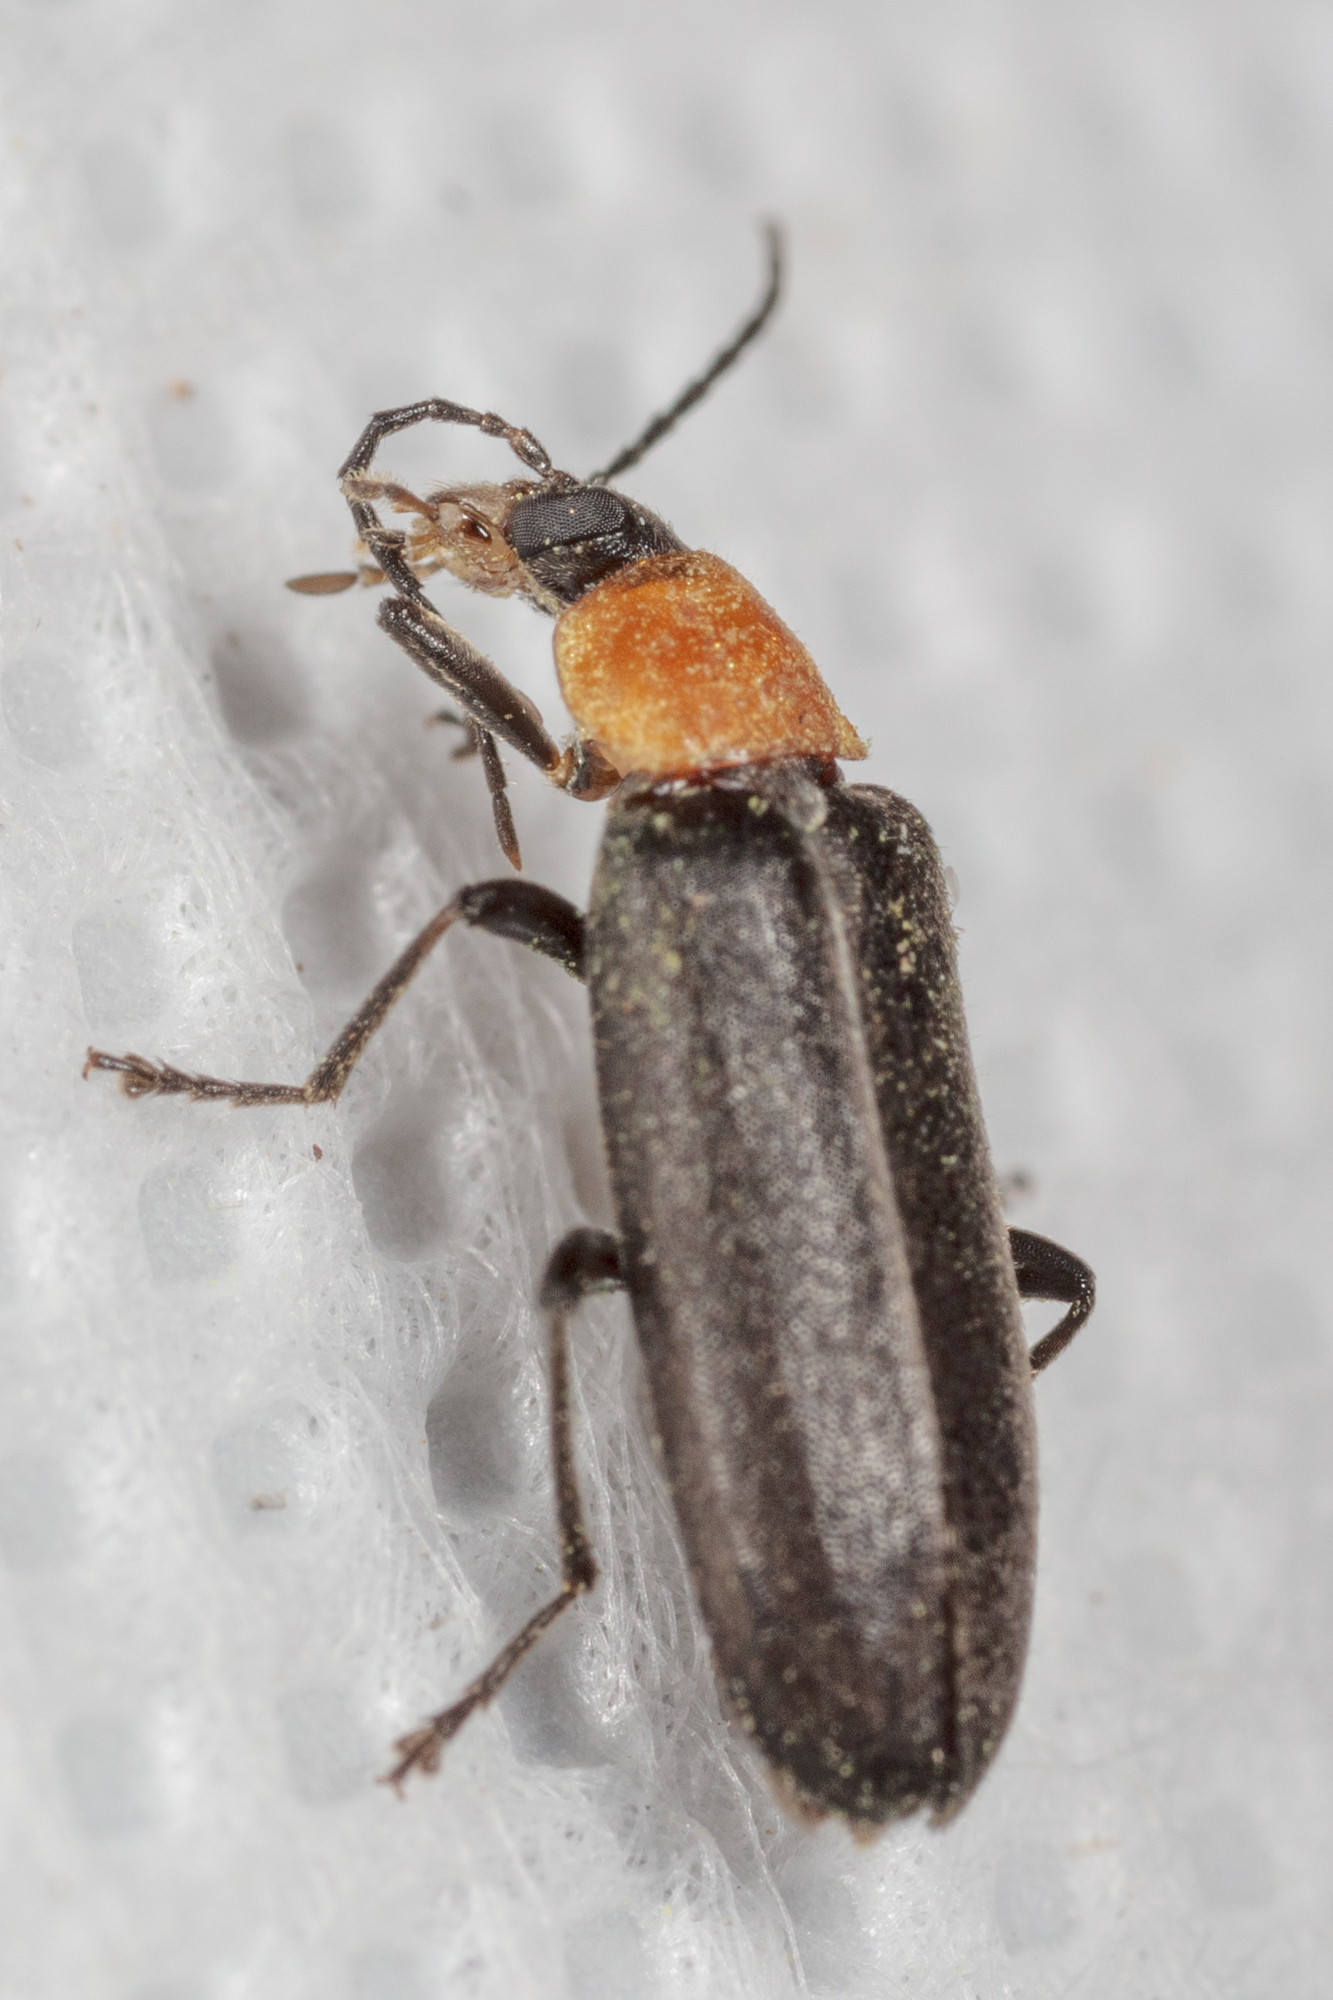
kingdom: Animalia
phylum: Arthropoda
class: Insecta
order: Coleoptera
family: Melandryidae
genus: Osphya
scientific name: Osphya varians
